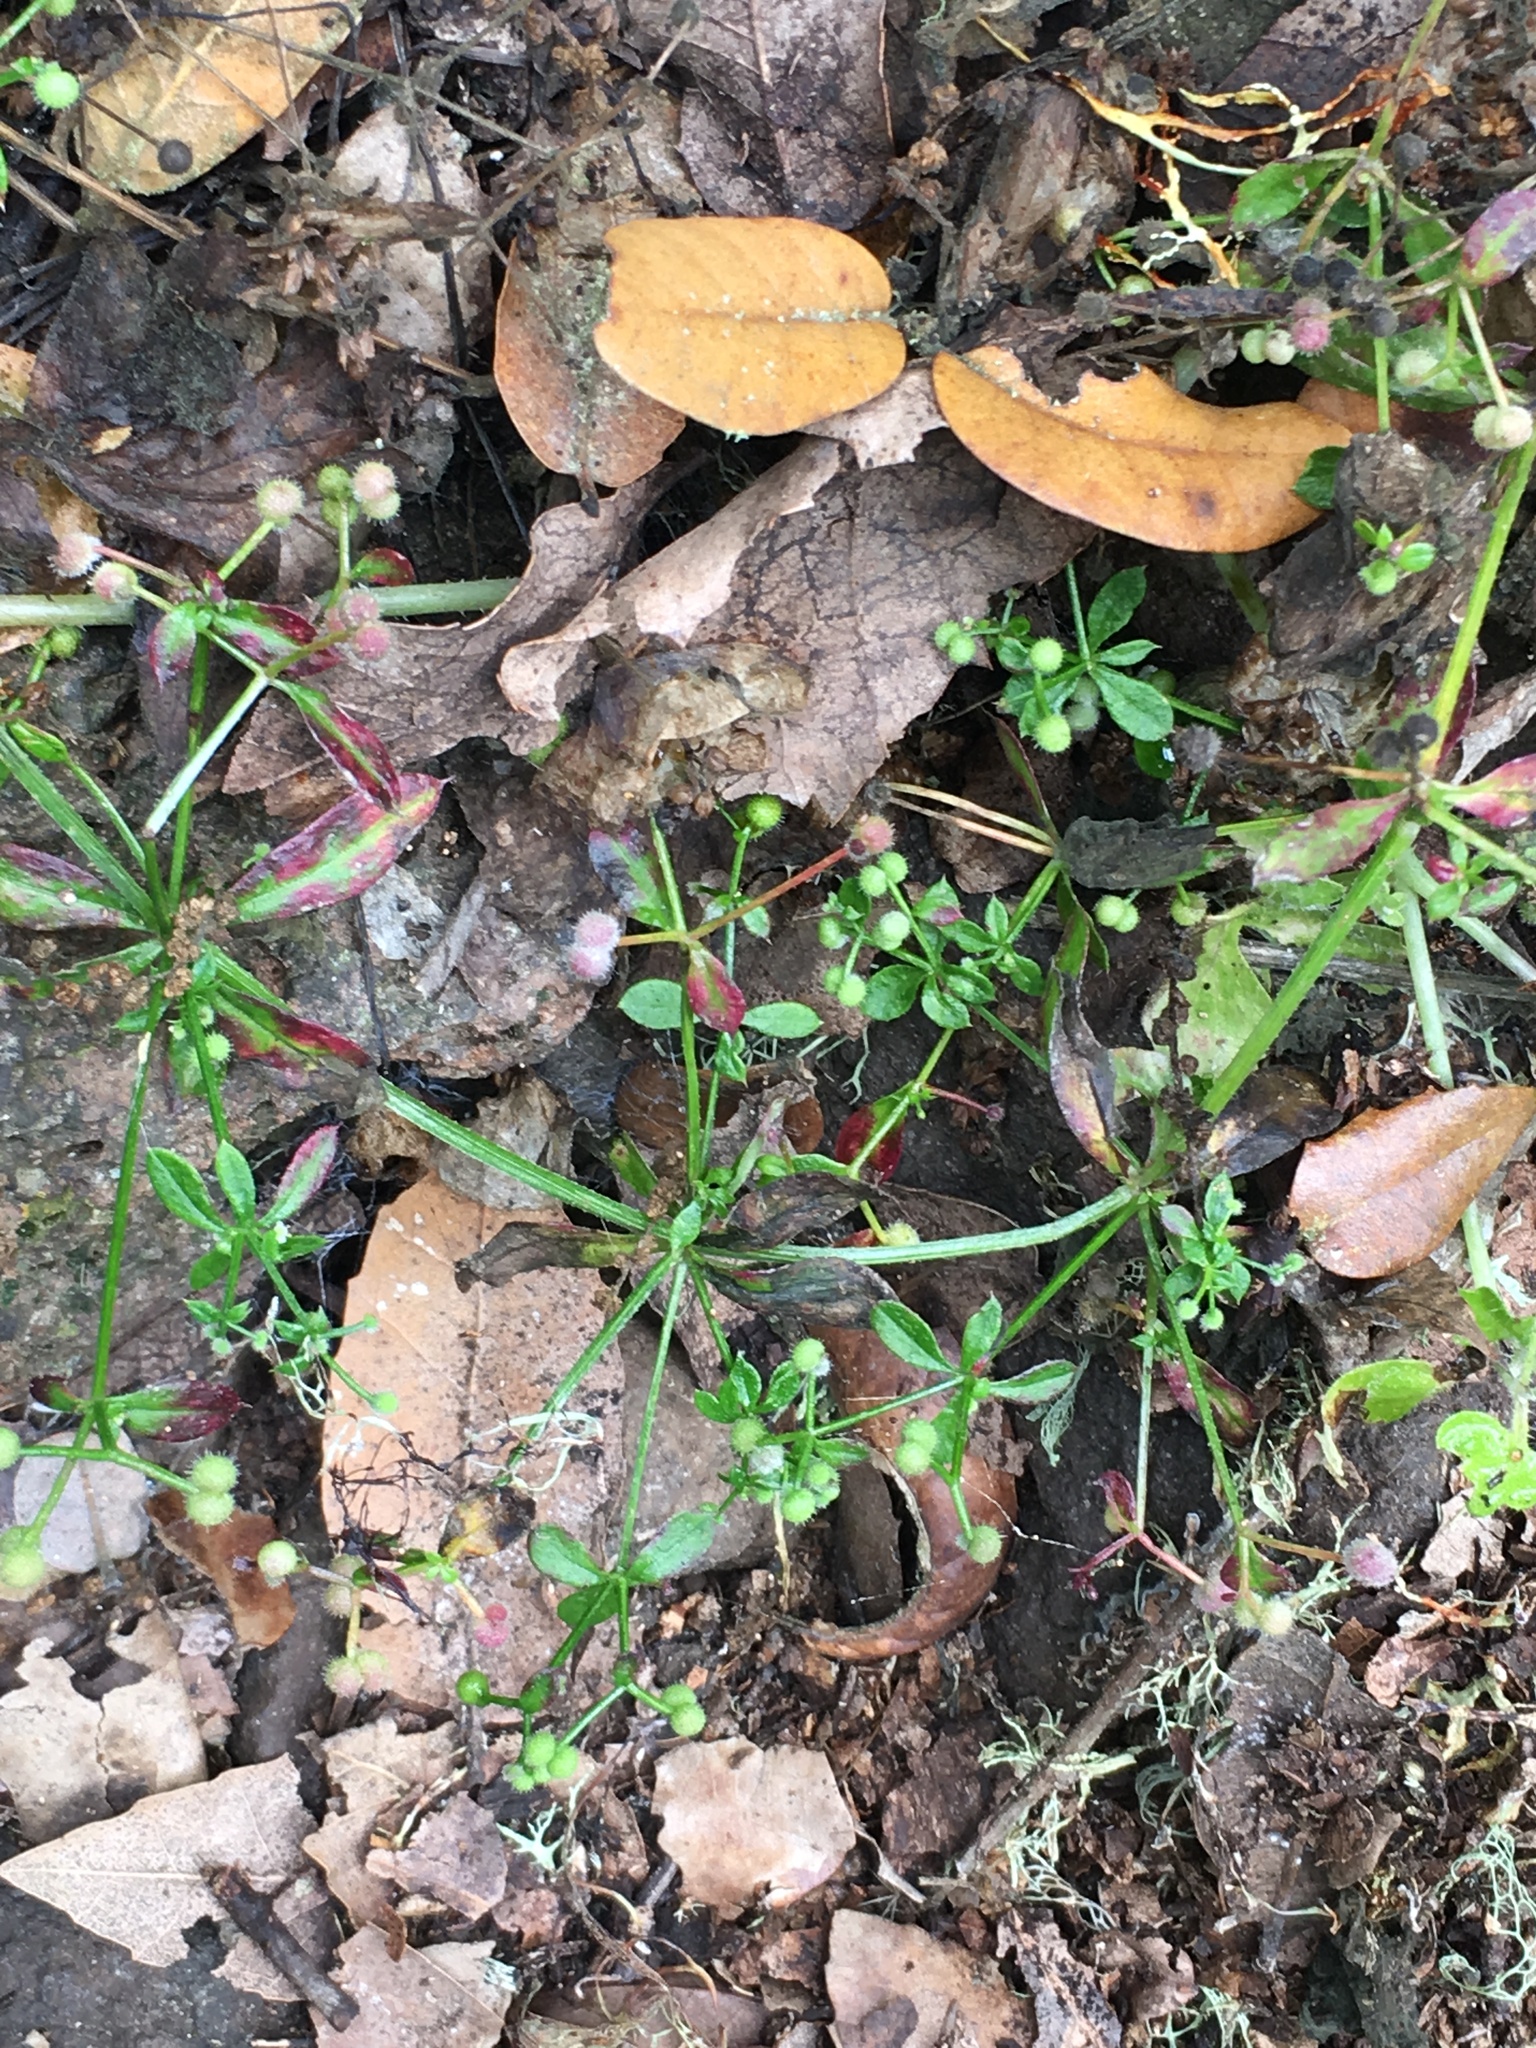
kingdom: Plantae
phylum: Tracheophyta
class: Magnoliopsida
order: Gentianales
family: Rubiaceae
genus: Galium
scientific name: Galium aparine
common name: Cleavers
